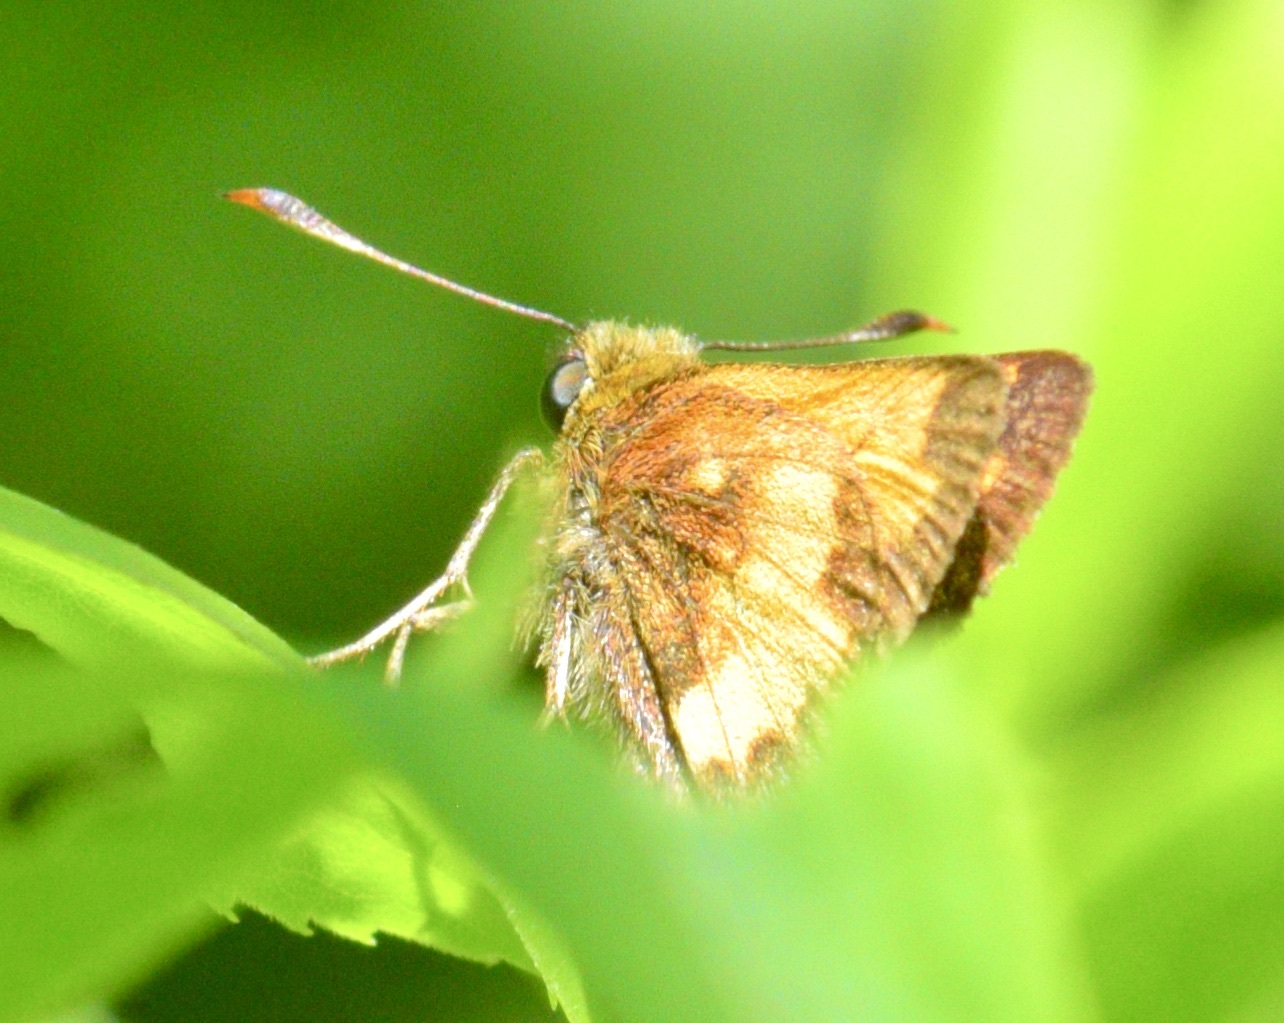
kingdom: Animalia
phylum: Arthropoda
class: Insecta
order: Lepidoptera
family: Hesperiidae
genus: Lon
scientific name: Lon hobomok
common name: Hobomok skipper
